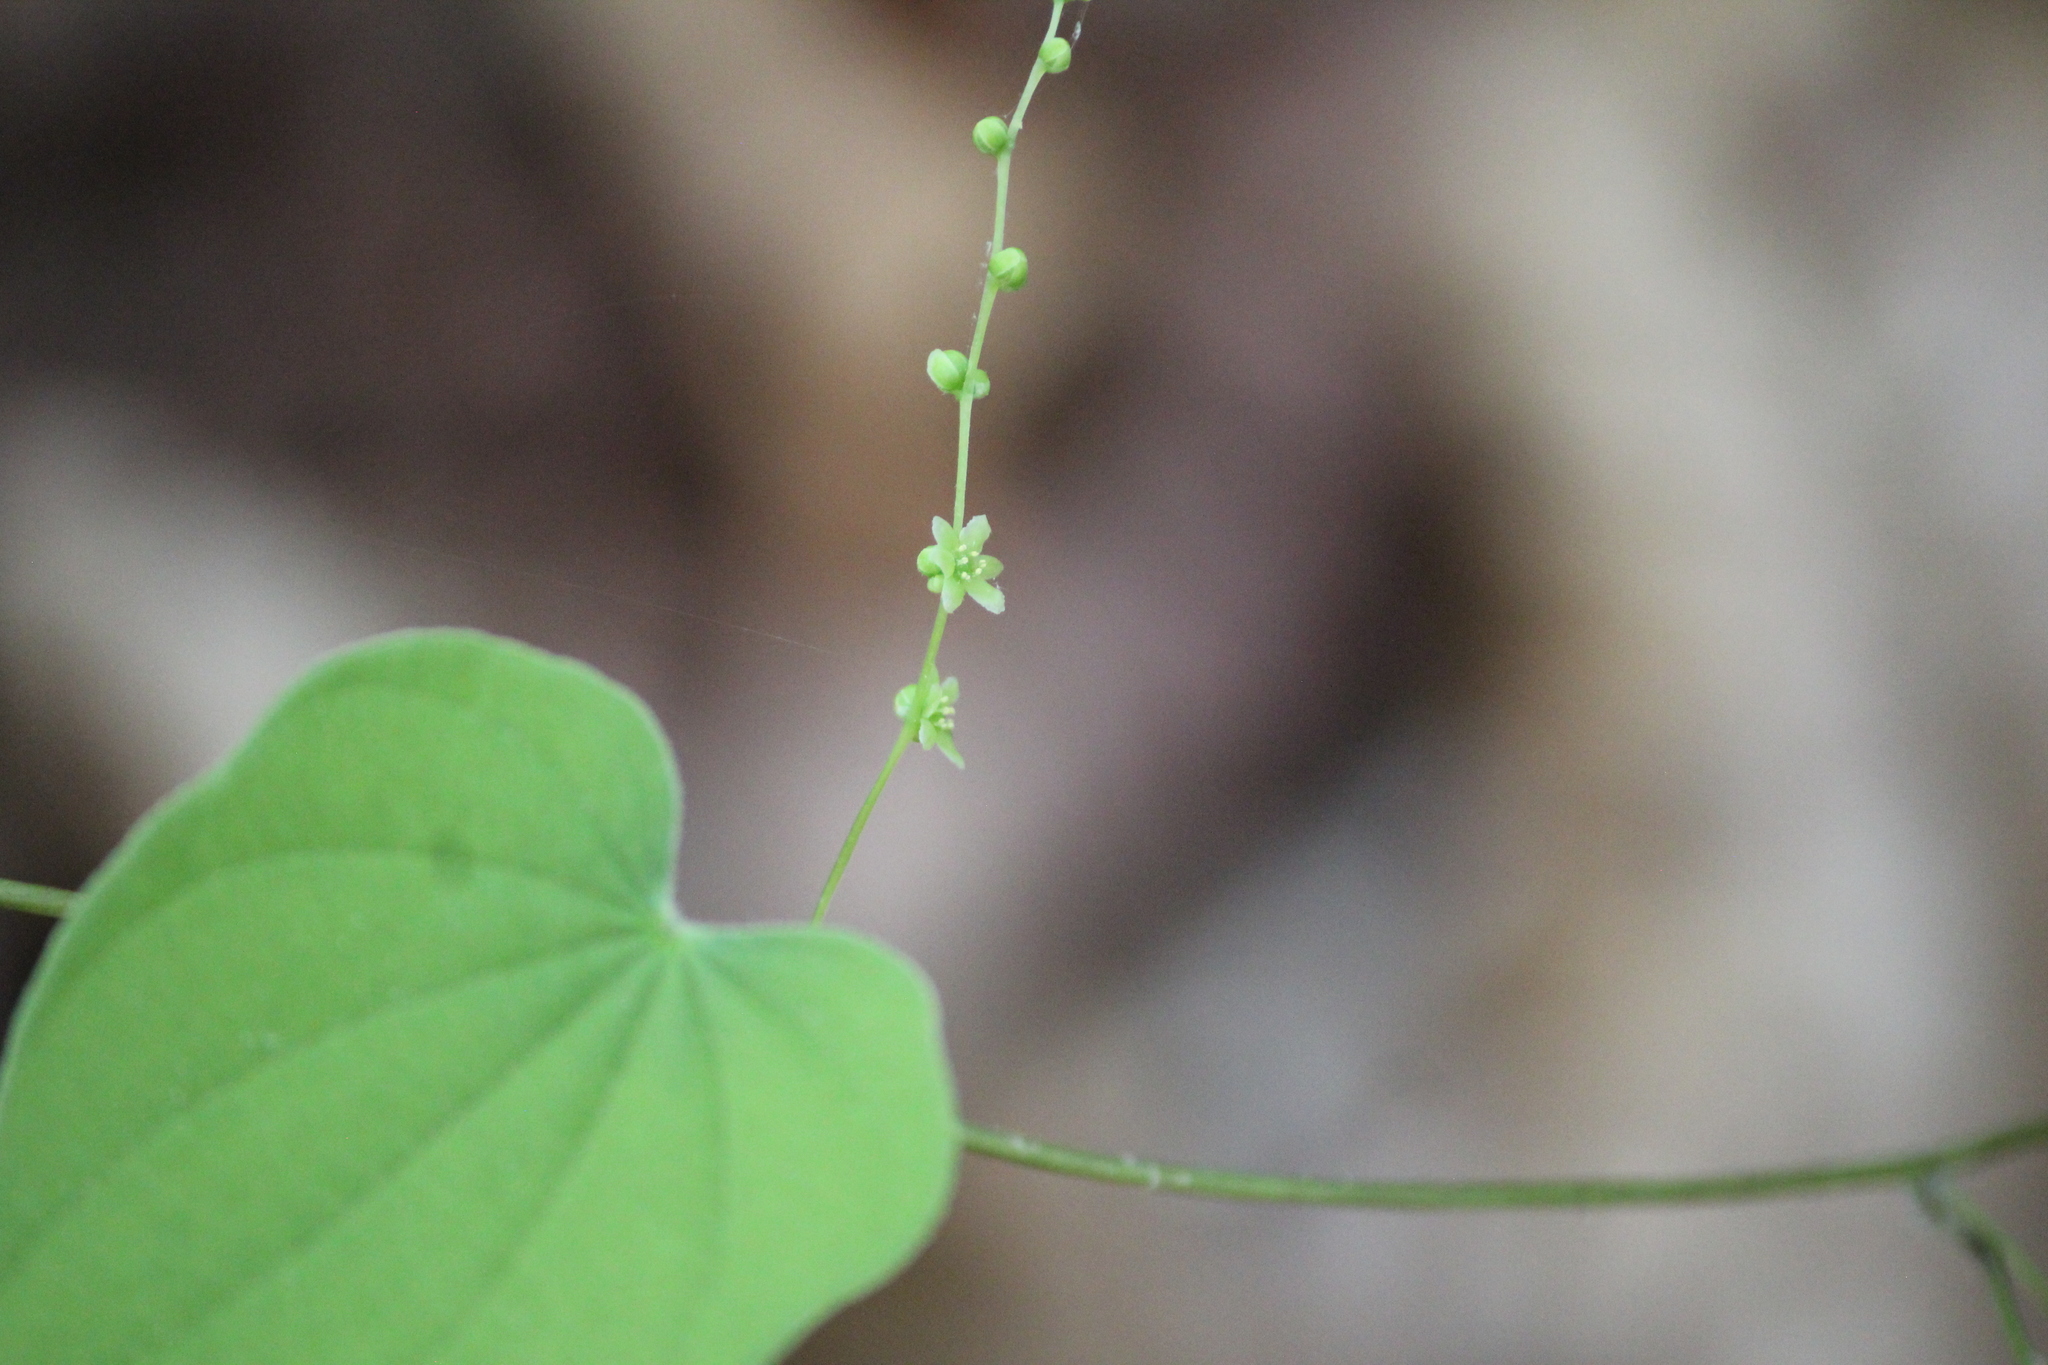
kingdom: Plantae
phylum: Tracheophyta
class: Liliopsida
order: Dioscoreales
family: Dioscoreaceae
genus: Dioscorea
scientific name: Dioscorea villosa
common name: Wild yam
